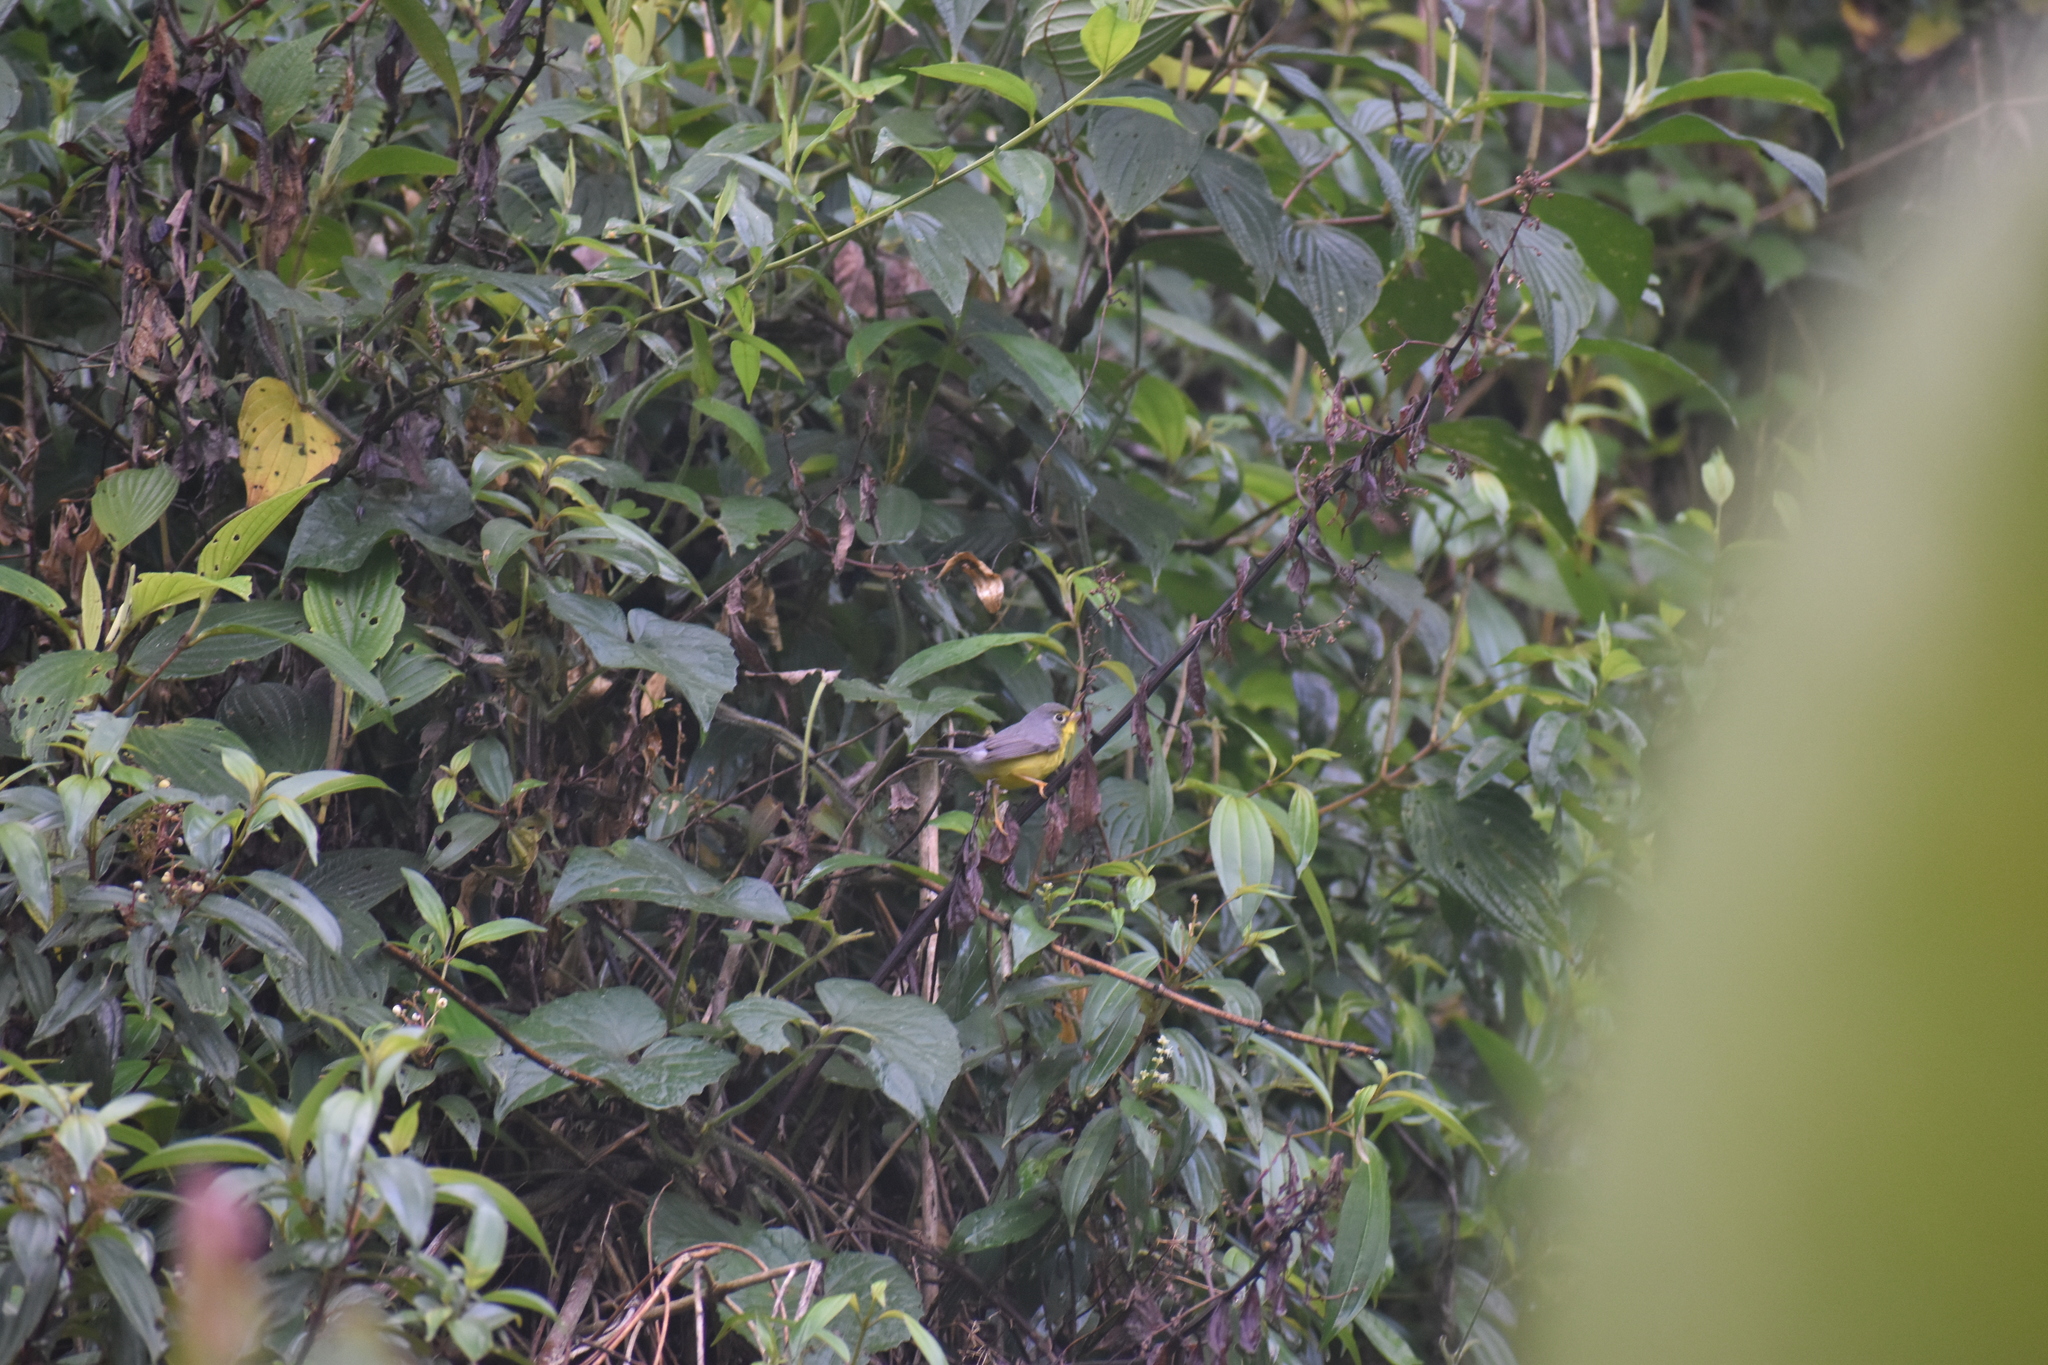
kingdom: Animalia
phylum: Chordata
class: Aves
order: Passeriformes
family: Parulidae
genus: Cardellina
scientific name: Cardellina canadensis
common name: Canada warbler
